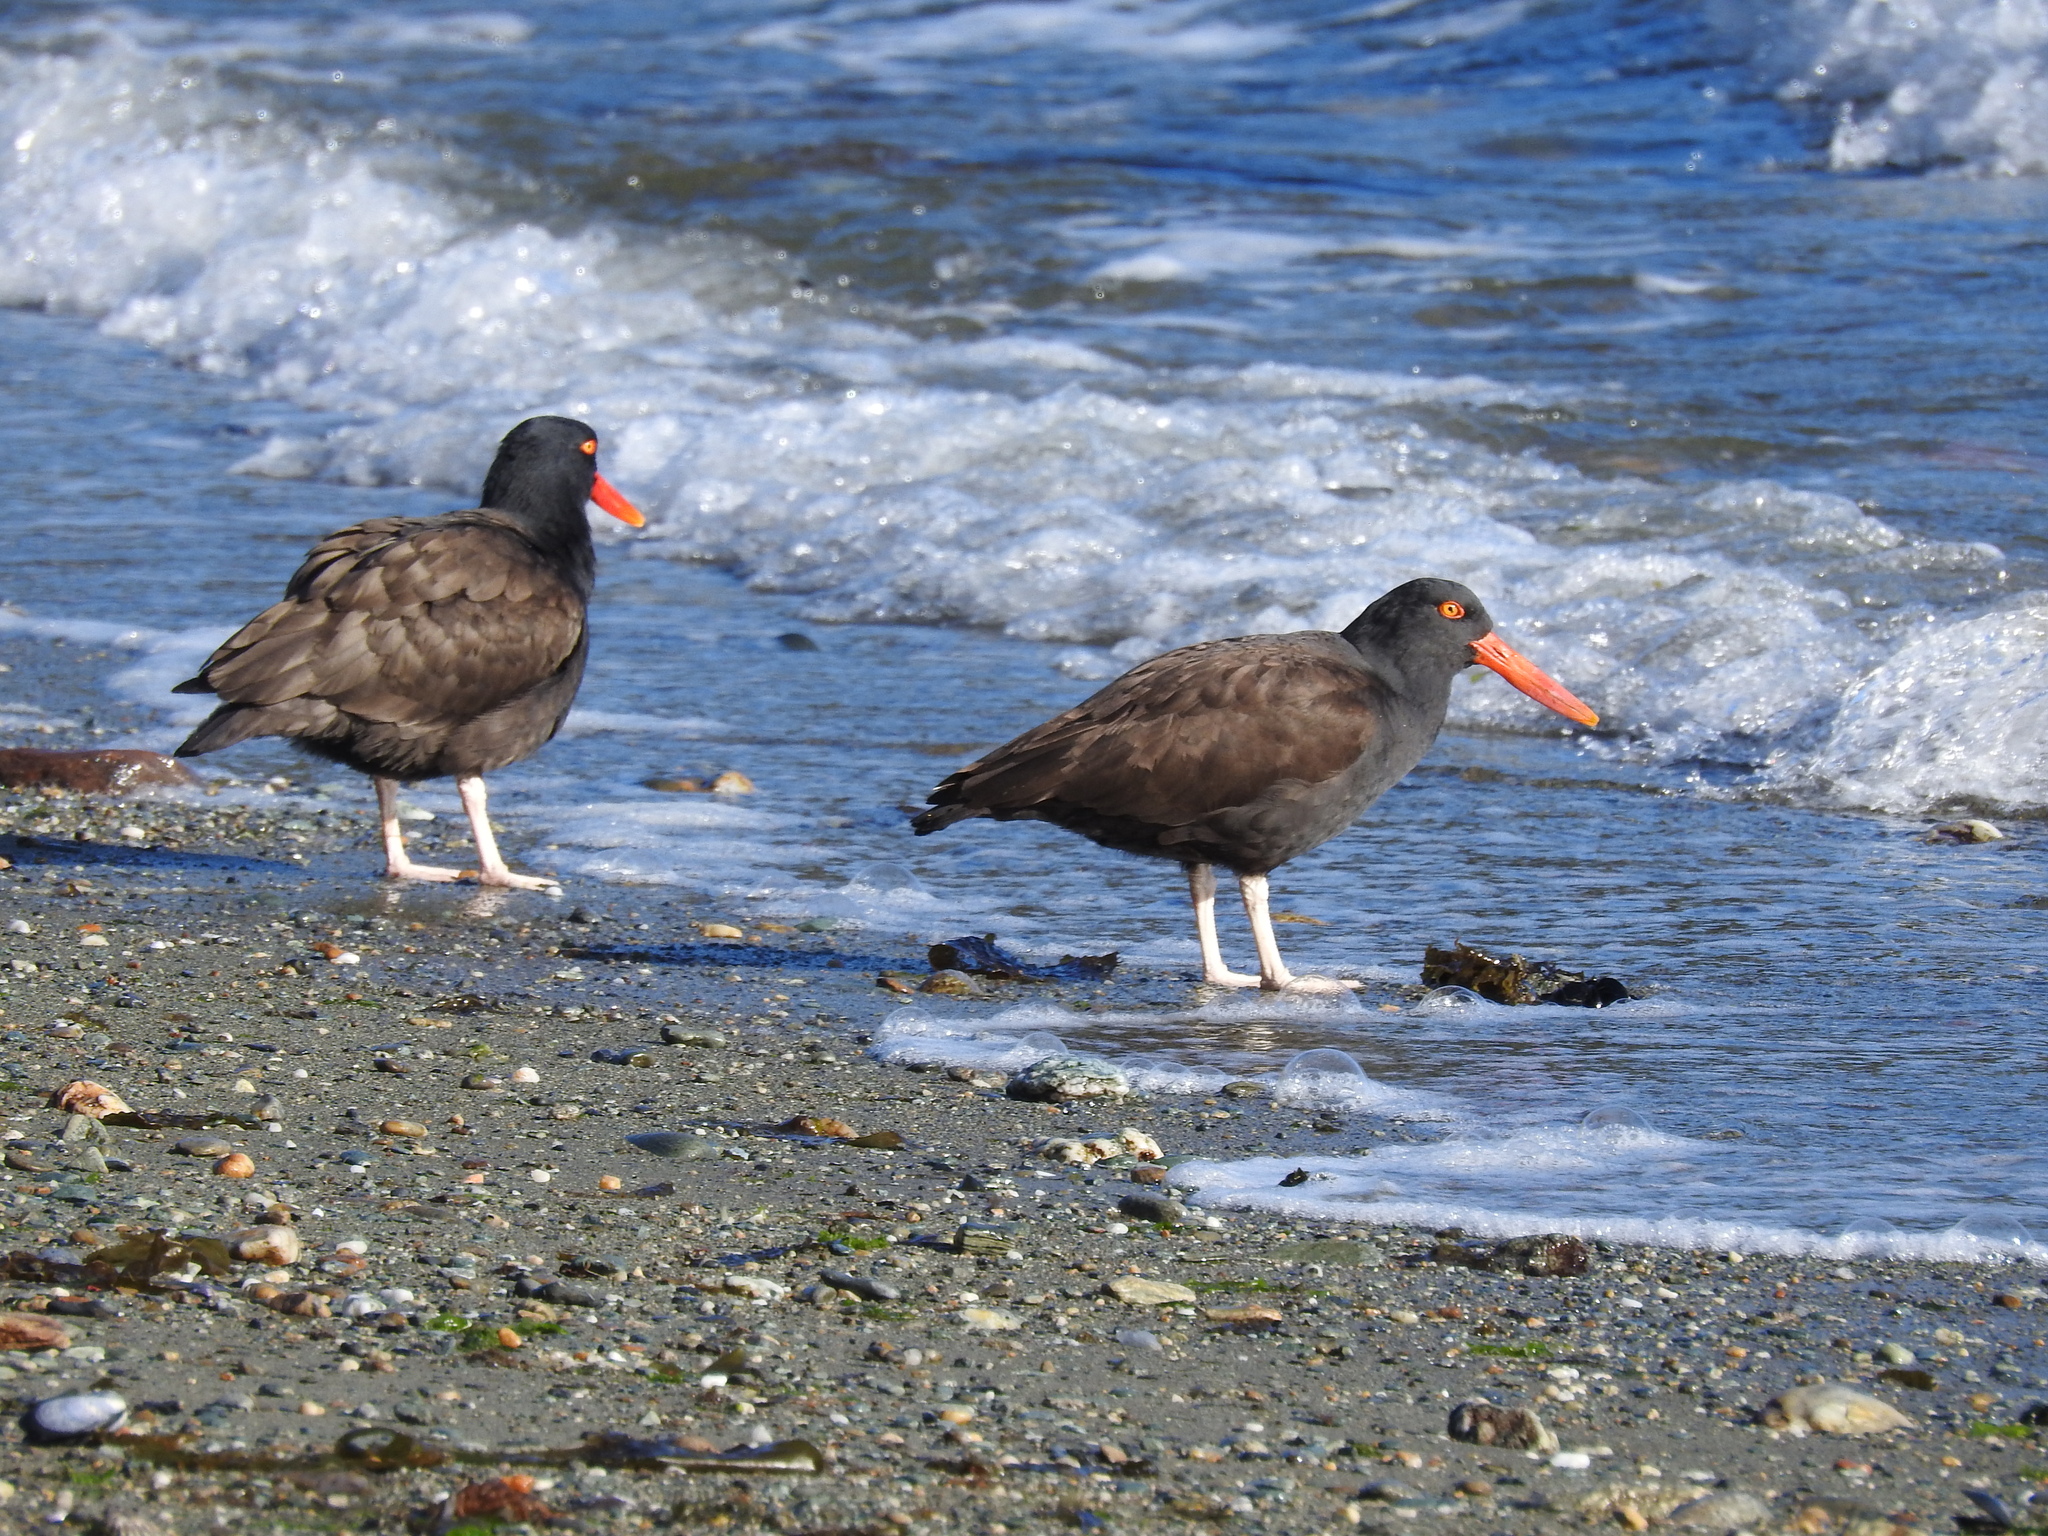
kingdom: Animalia
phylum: Chordata
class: Aves
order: Charadriiformes
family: Haematopodidae
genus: Haematopus
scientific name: Haematopus ater
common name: Blackish oystercatcher
